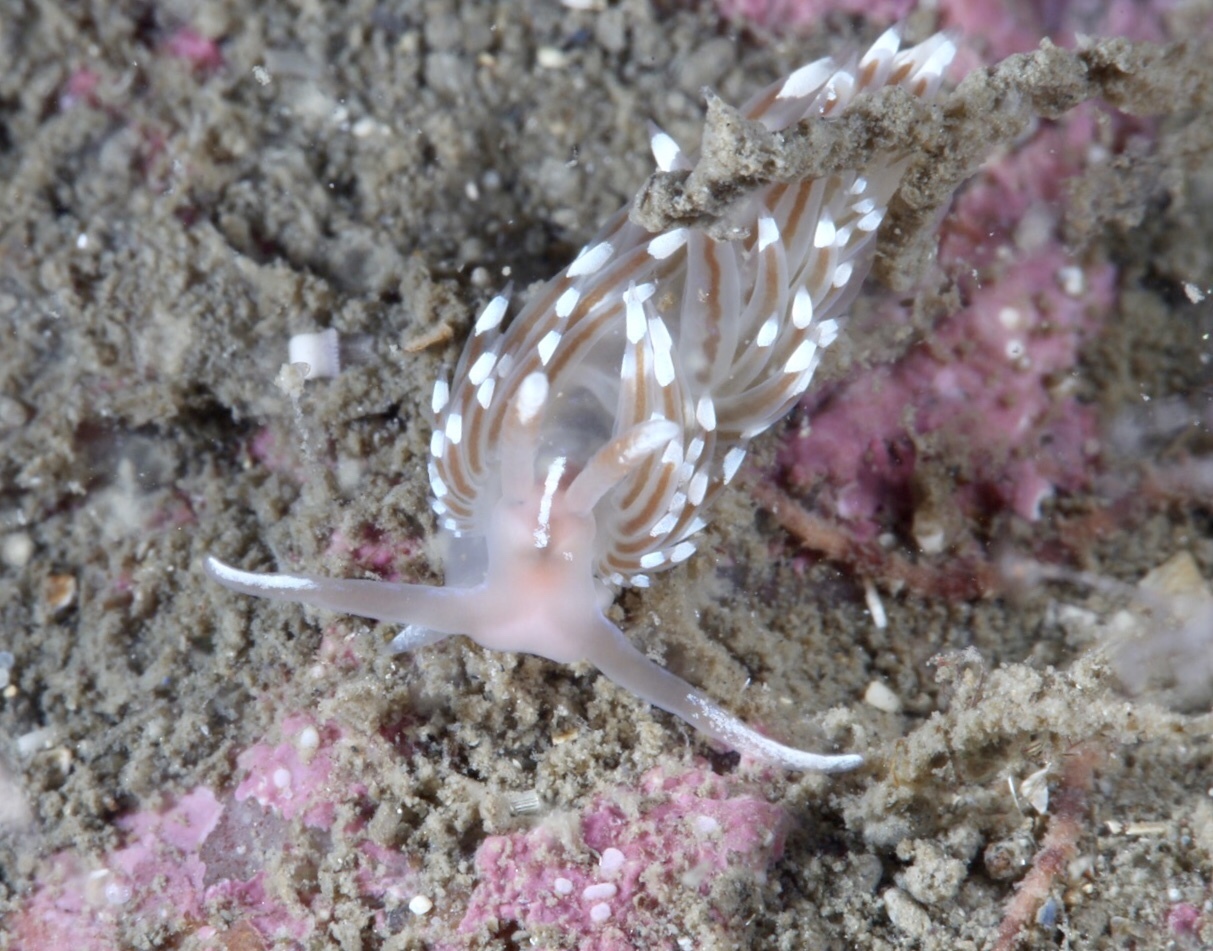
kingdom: Animalia
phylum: Mollusca
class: Gastropoda
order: Nudibranchia
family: Facelinidae
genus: Facelina
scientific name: Facelina bostoniensis
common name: Boston facelina
